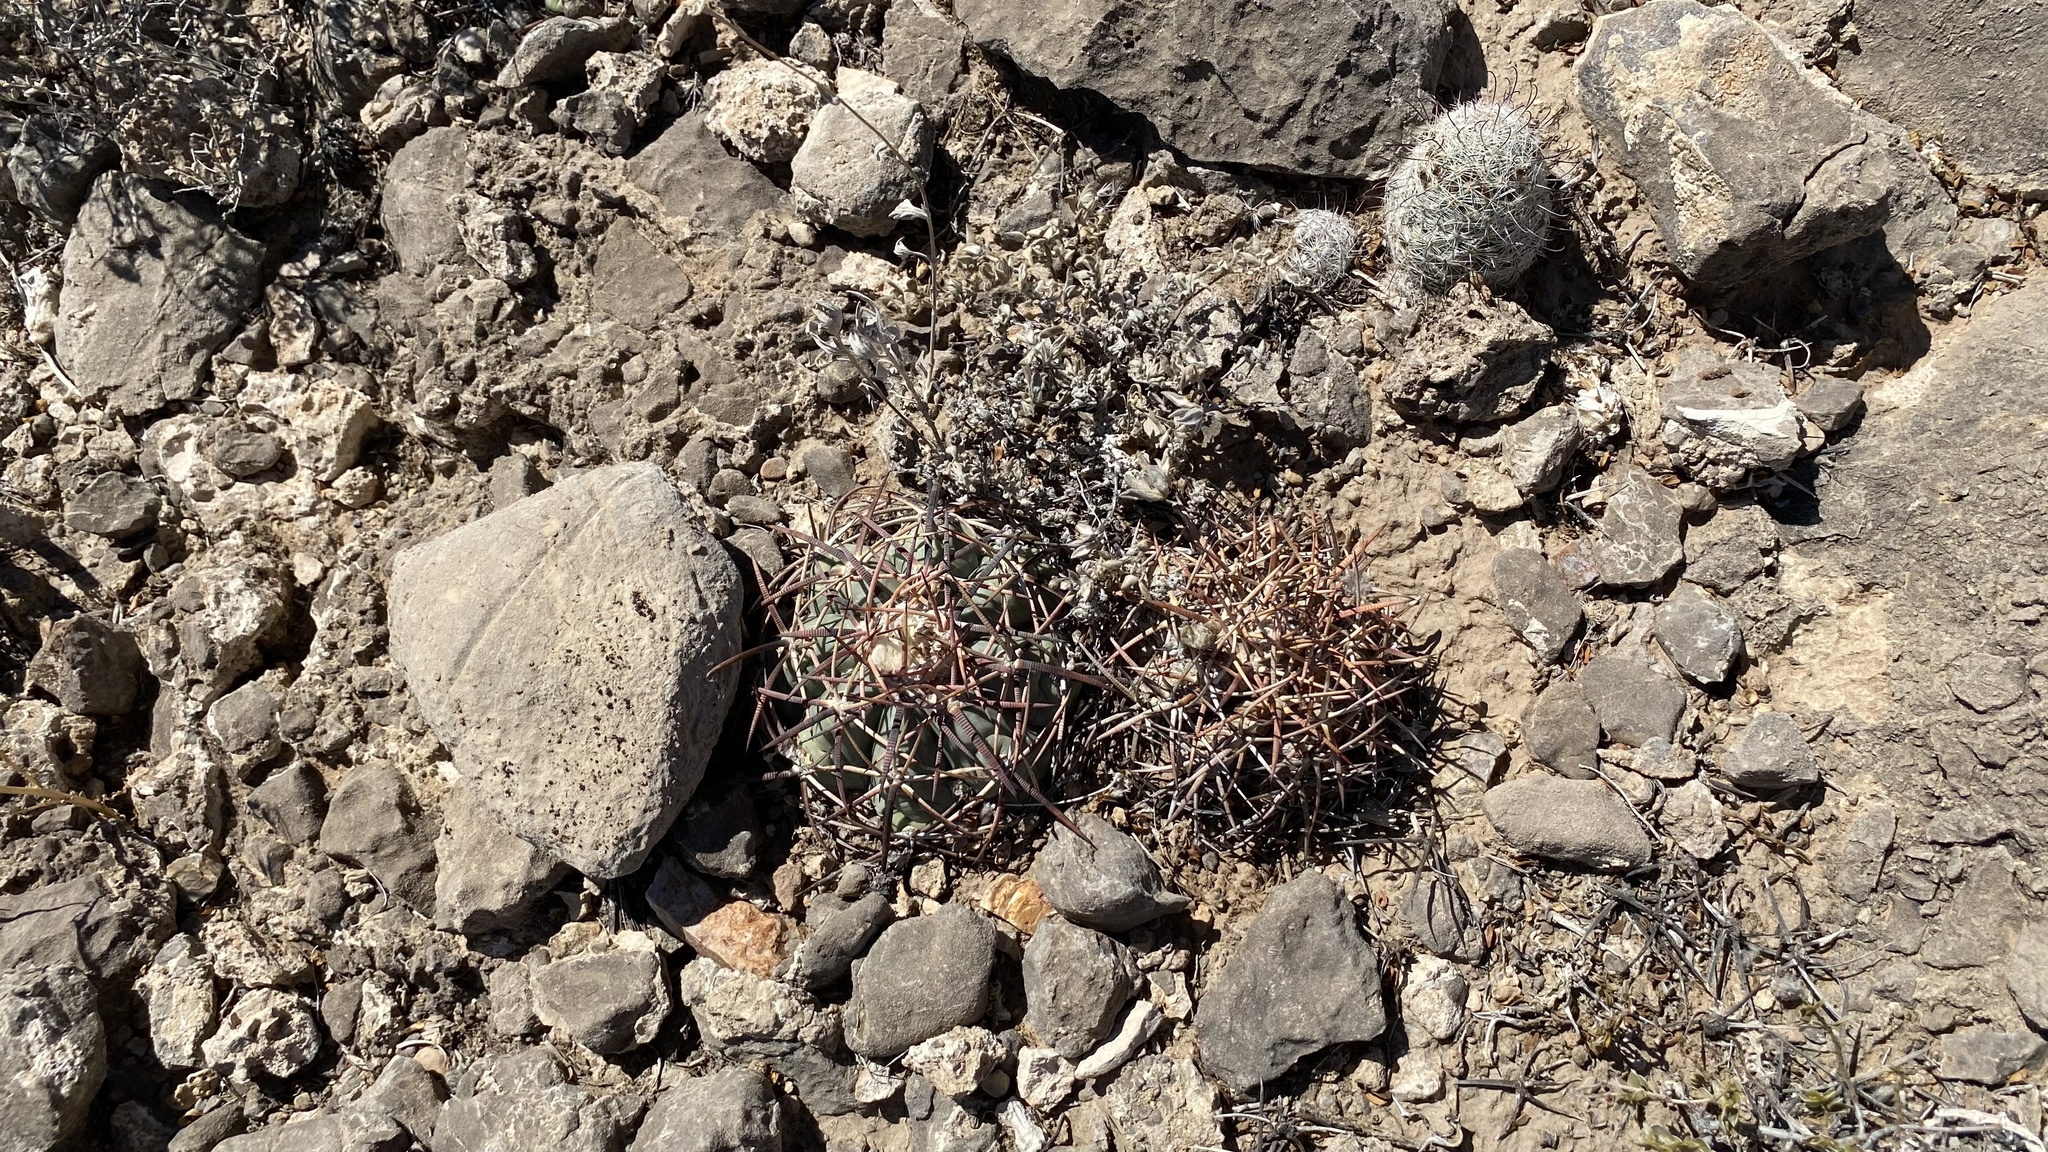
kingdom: Plantae
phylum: Tracheophyta
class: Magnoliopsida
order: Caryophyllales
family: Cactaceae
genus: Echinocactus
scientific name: Echinocactus horizonthalonius
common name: Devilshead
